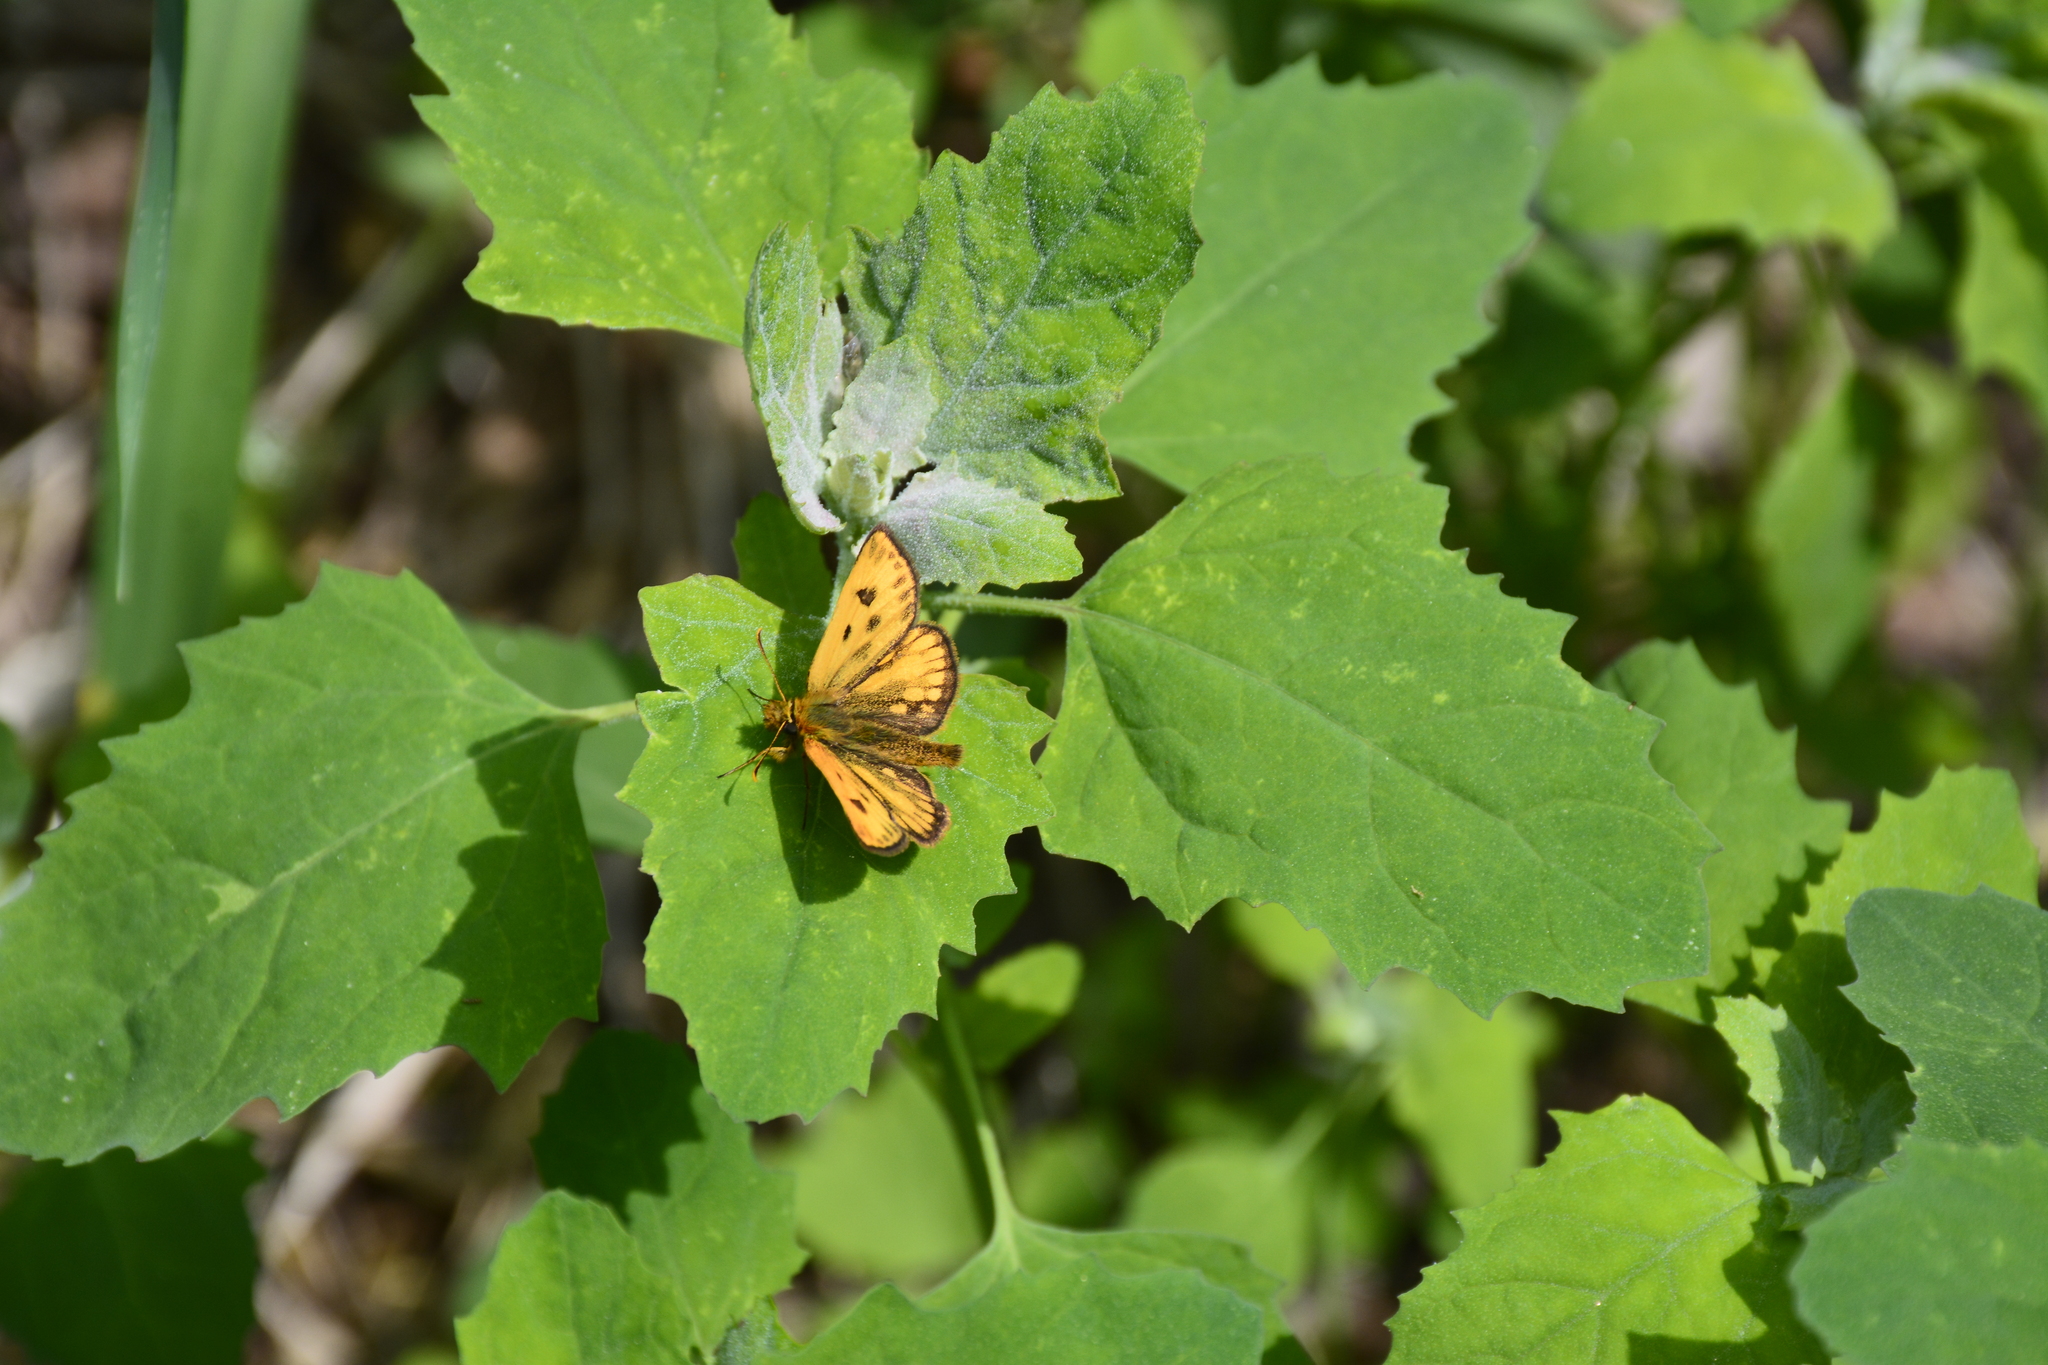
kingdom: Animalia
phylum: Arthropoda
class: Insecta
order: Lepidoptera
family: Hesperiidae
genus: Carterocephalus
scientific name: Carterocephalus silvicola
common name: Northern chequered skipper
